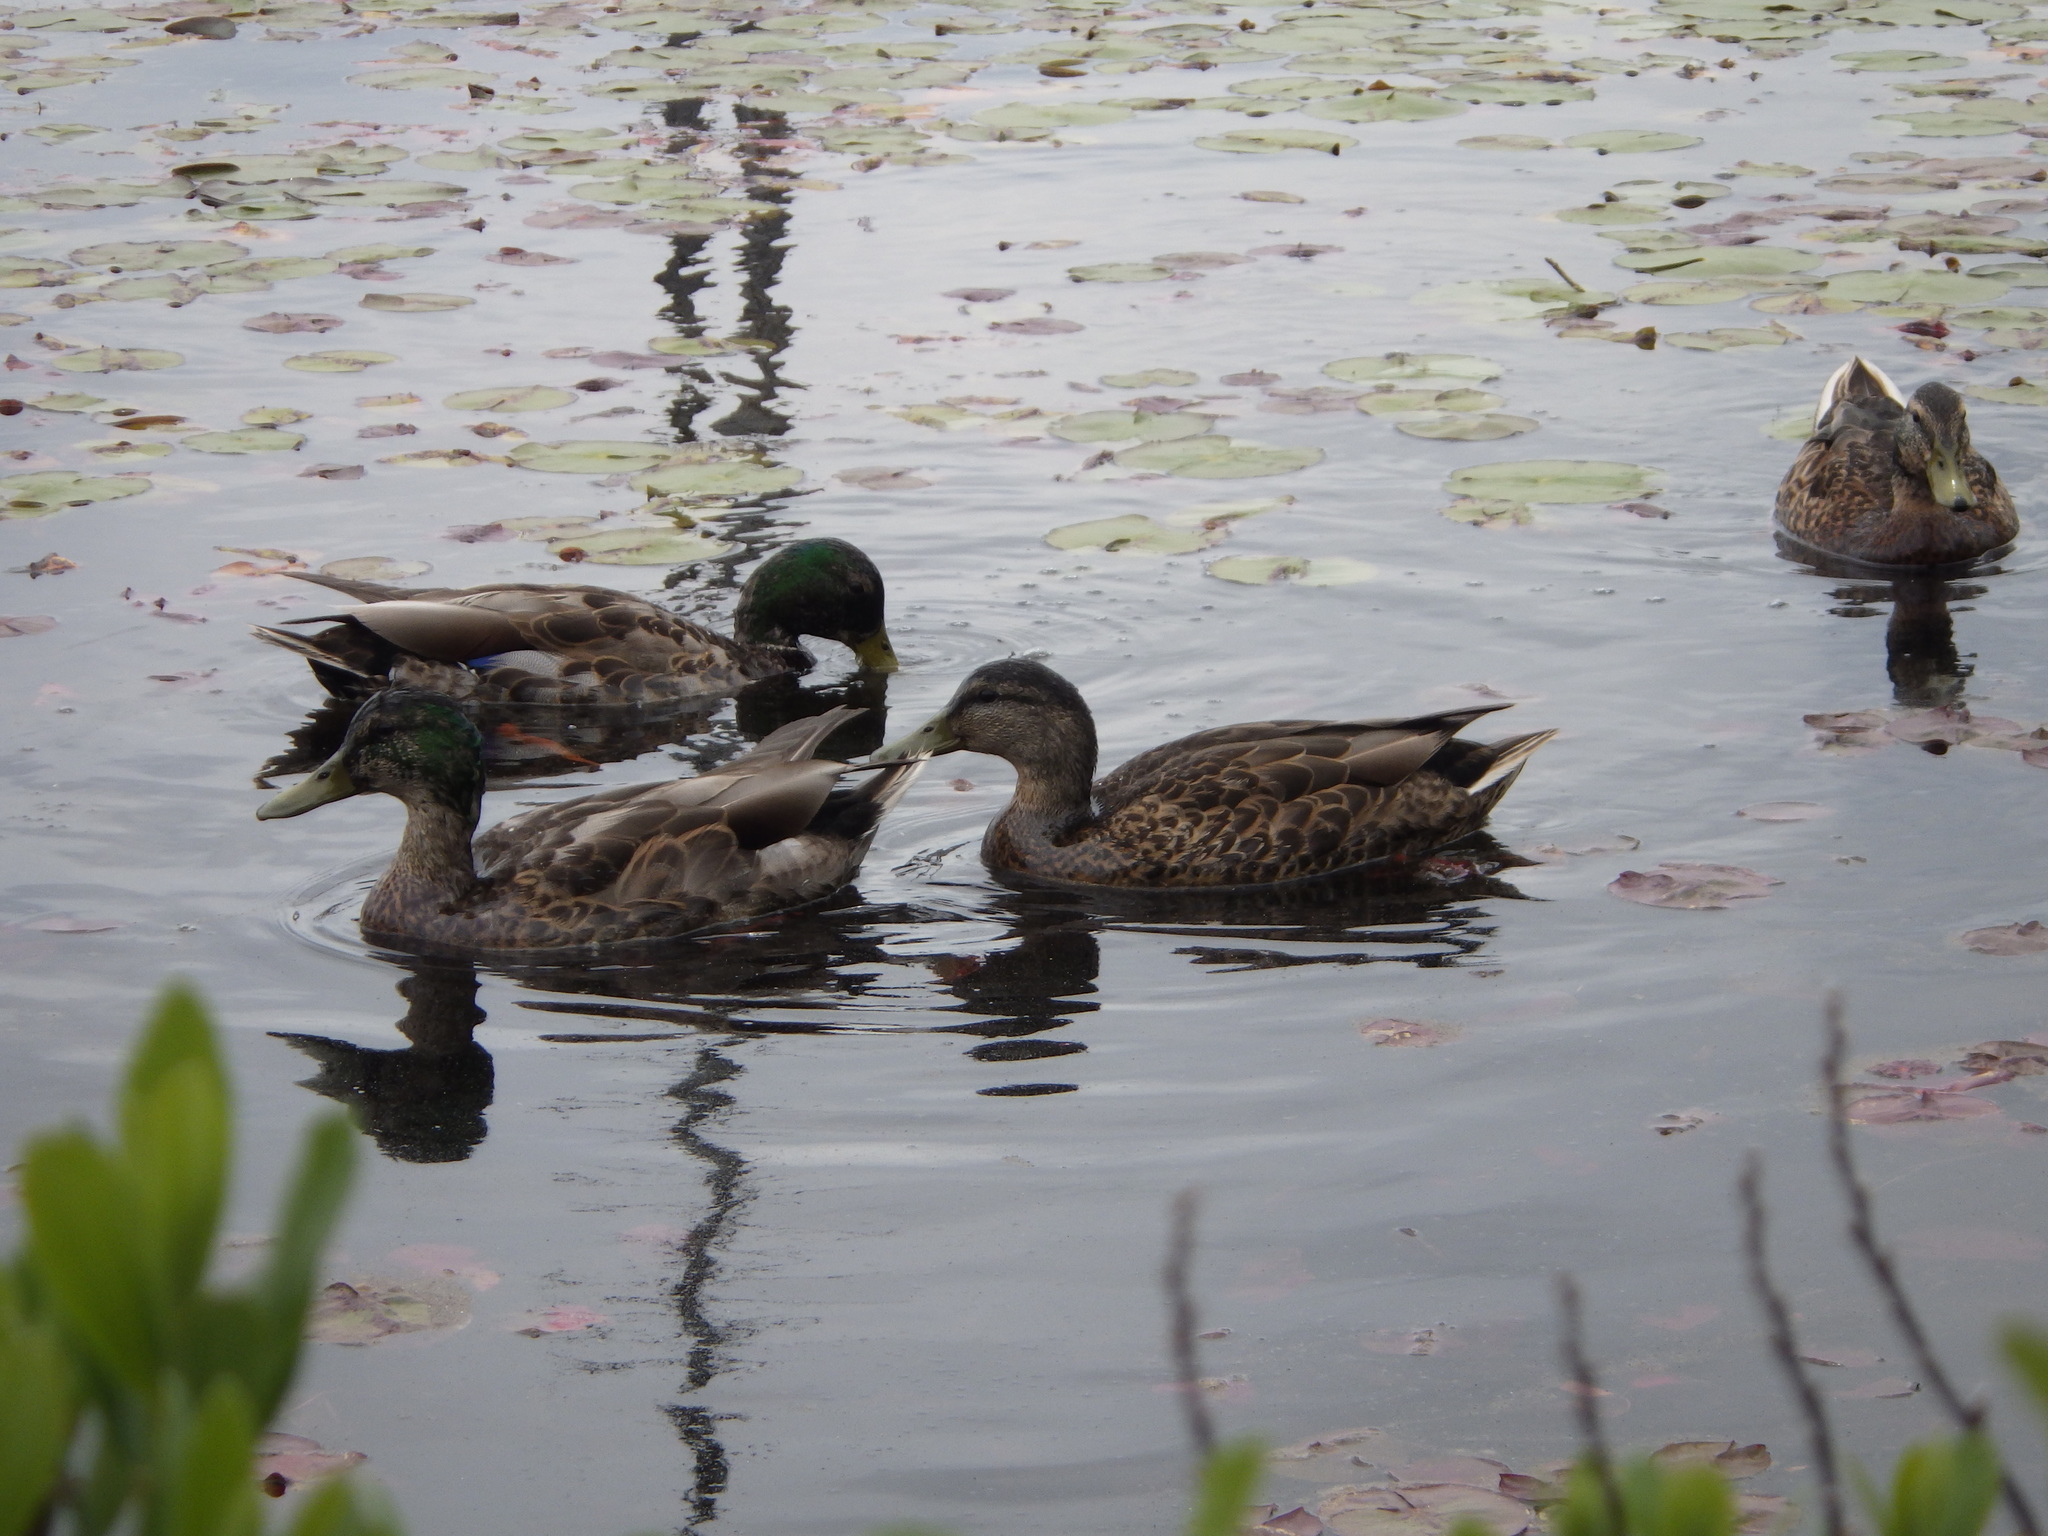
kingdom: Animalia
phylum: Chordata
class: Aves
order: Anseriformes
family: Anatidae
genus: Anas
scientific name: Anas platyrhynchos
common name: Mallard
